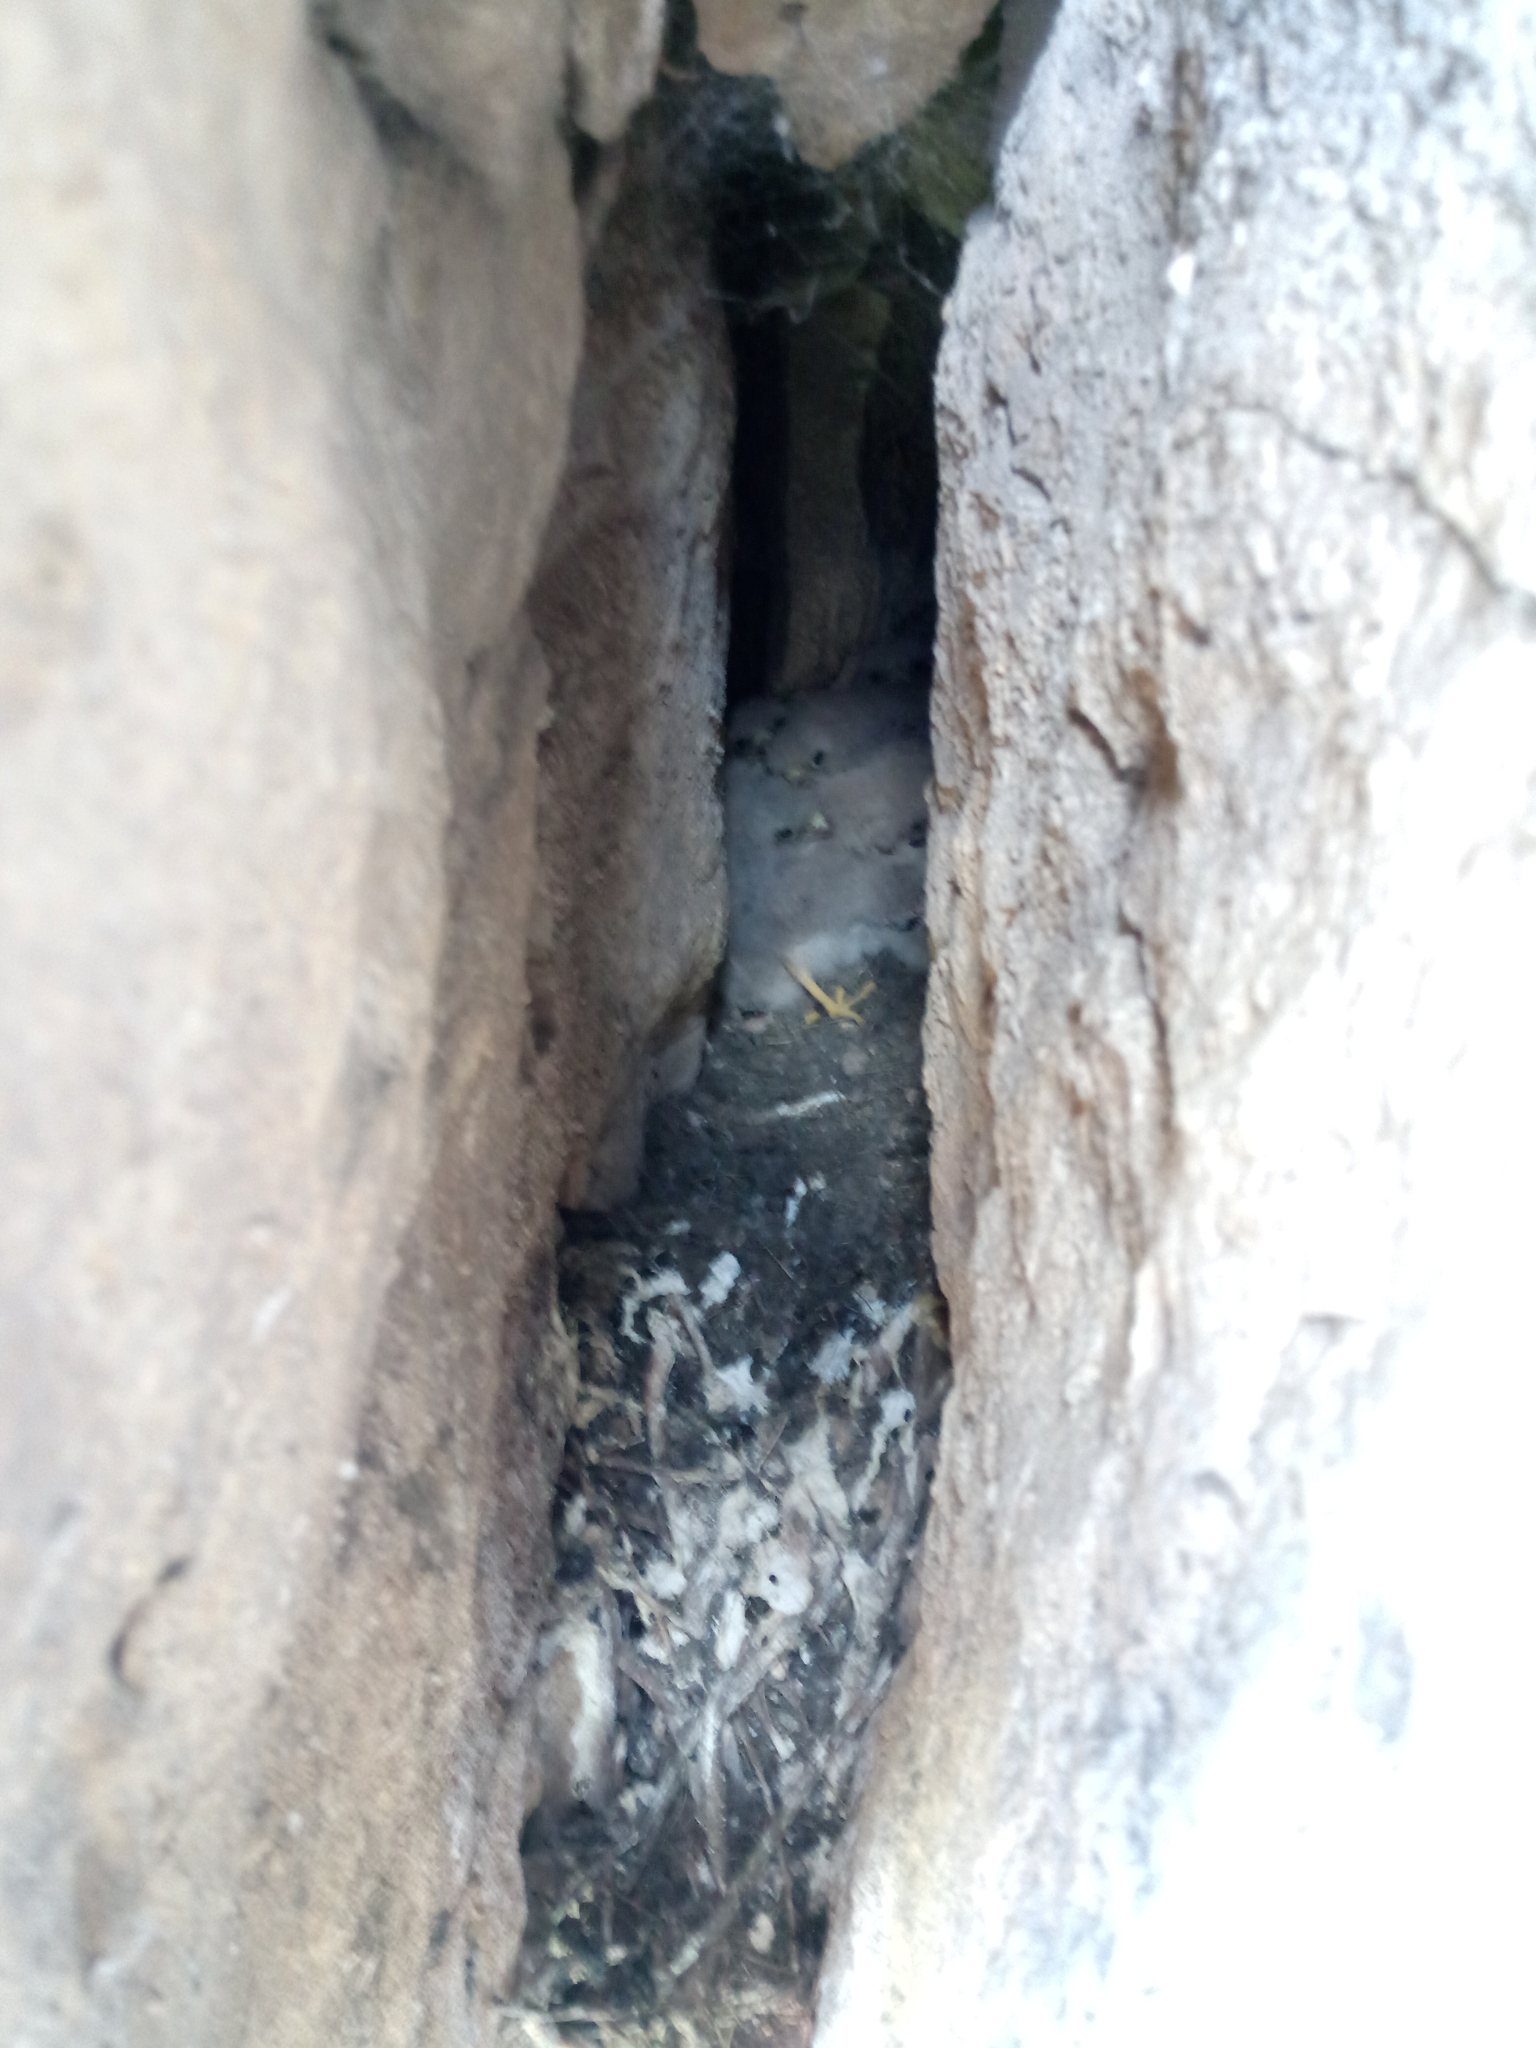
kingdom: Animalia
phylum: Chordata
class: Aves
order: Falconiformes
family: Falconidae
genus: Falco
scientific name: Falco tinnunculus
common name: Common kestrel
